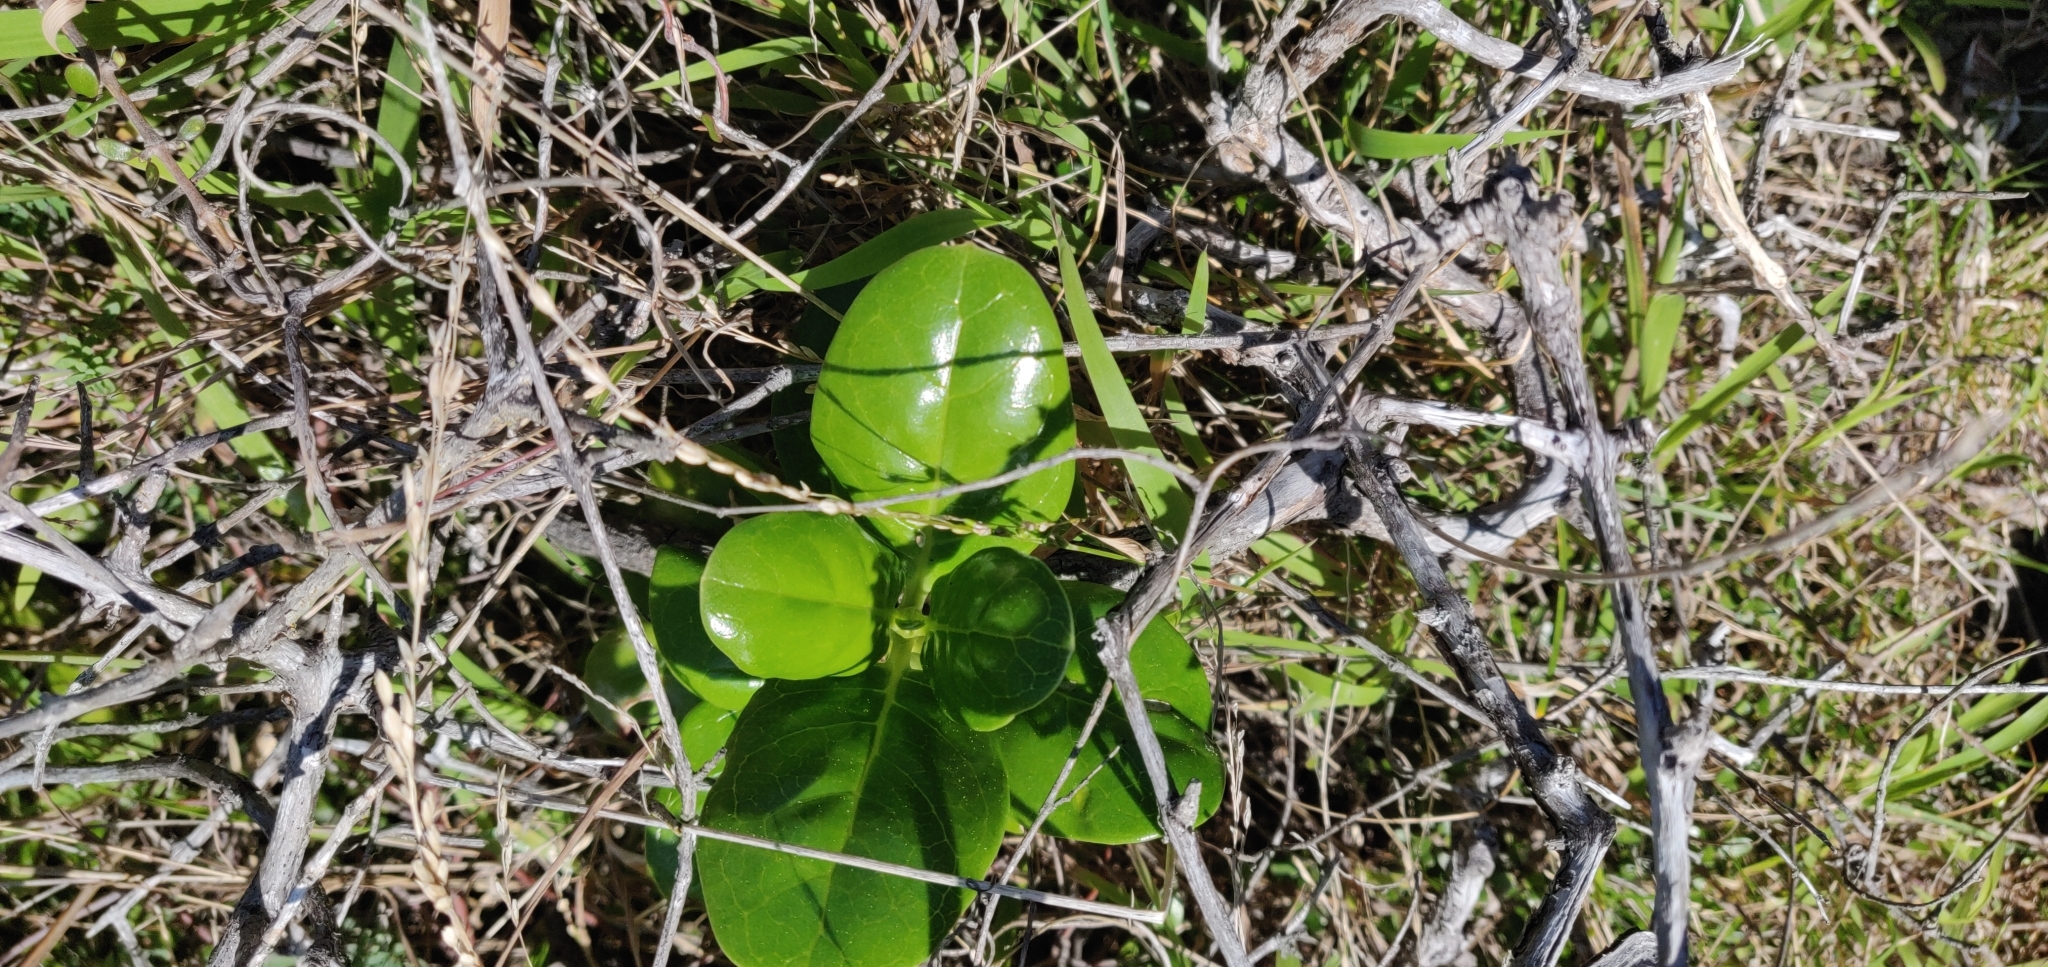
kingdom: Plantae
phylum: Tracheophyta
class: Magnoliopsida
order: Gentianales
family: Rubiaceae
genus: Coprosma
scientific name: Coprosma repens
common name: Tree bedstraw
